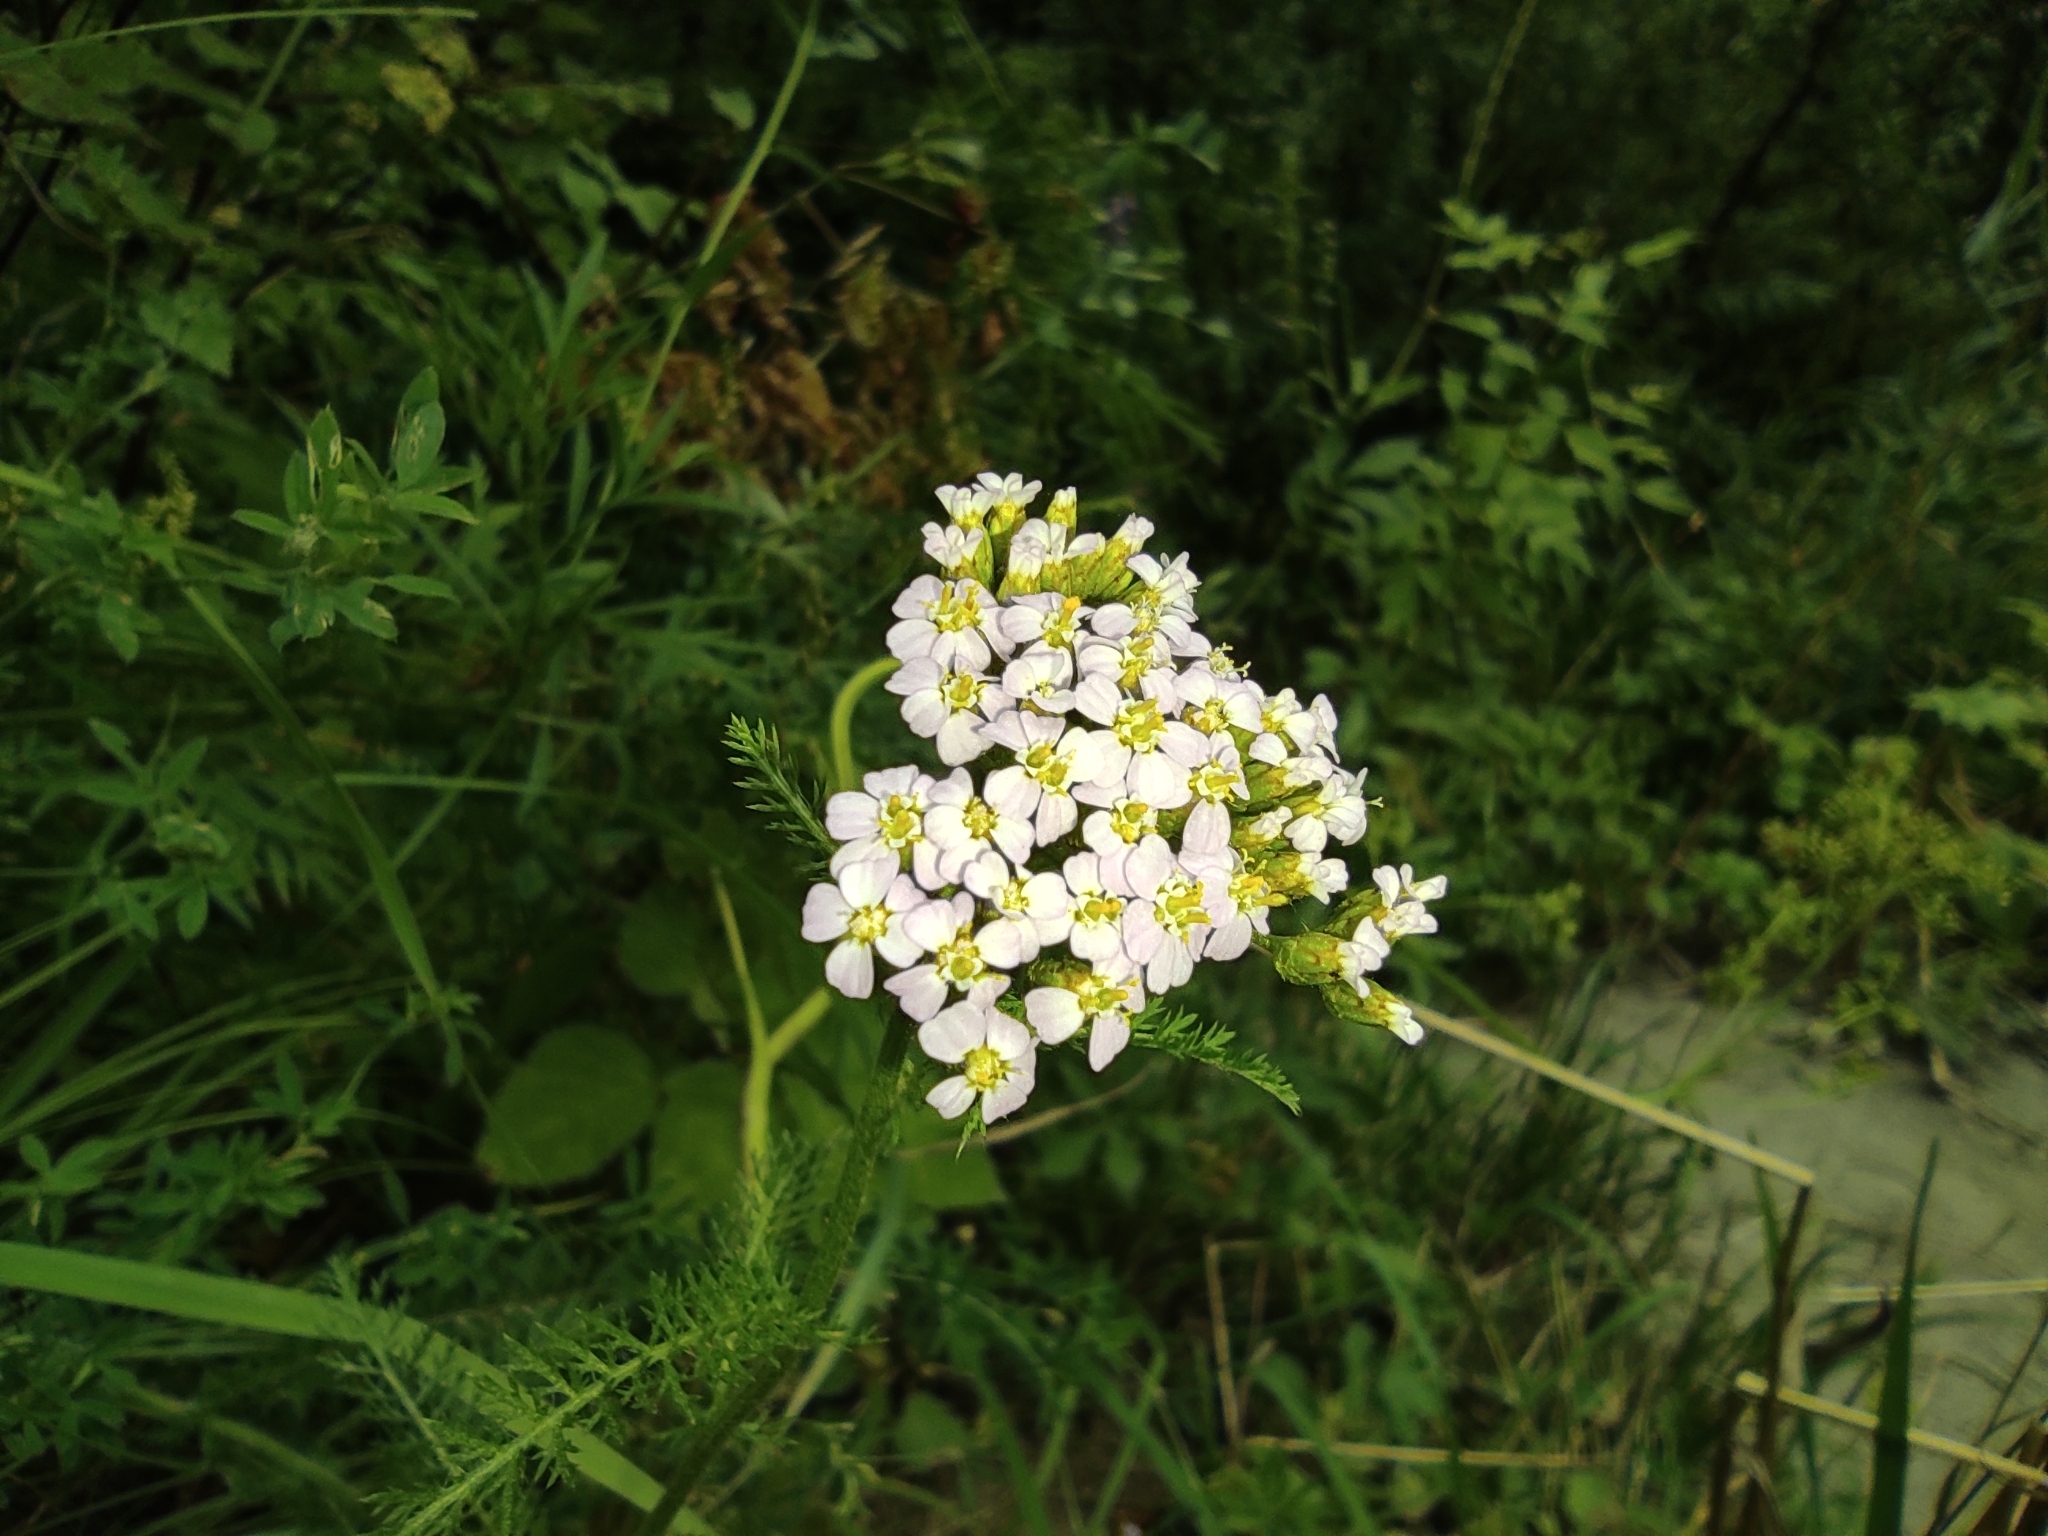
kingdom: Plantae
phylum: Tracheophyta
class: Magnoliopsida
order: Asterales
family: Asteraceae
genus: Achillea
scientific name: Achillea millefolium
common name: Yarrow
